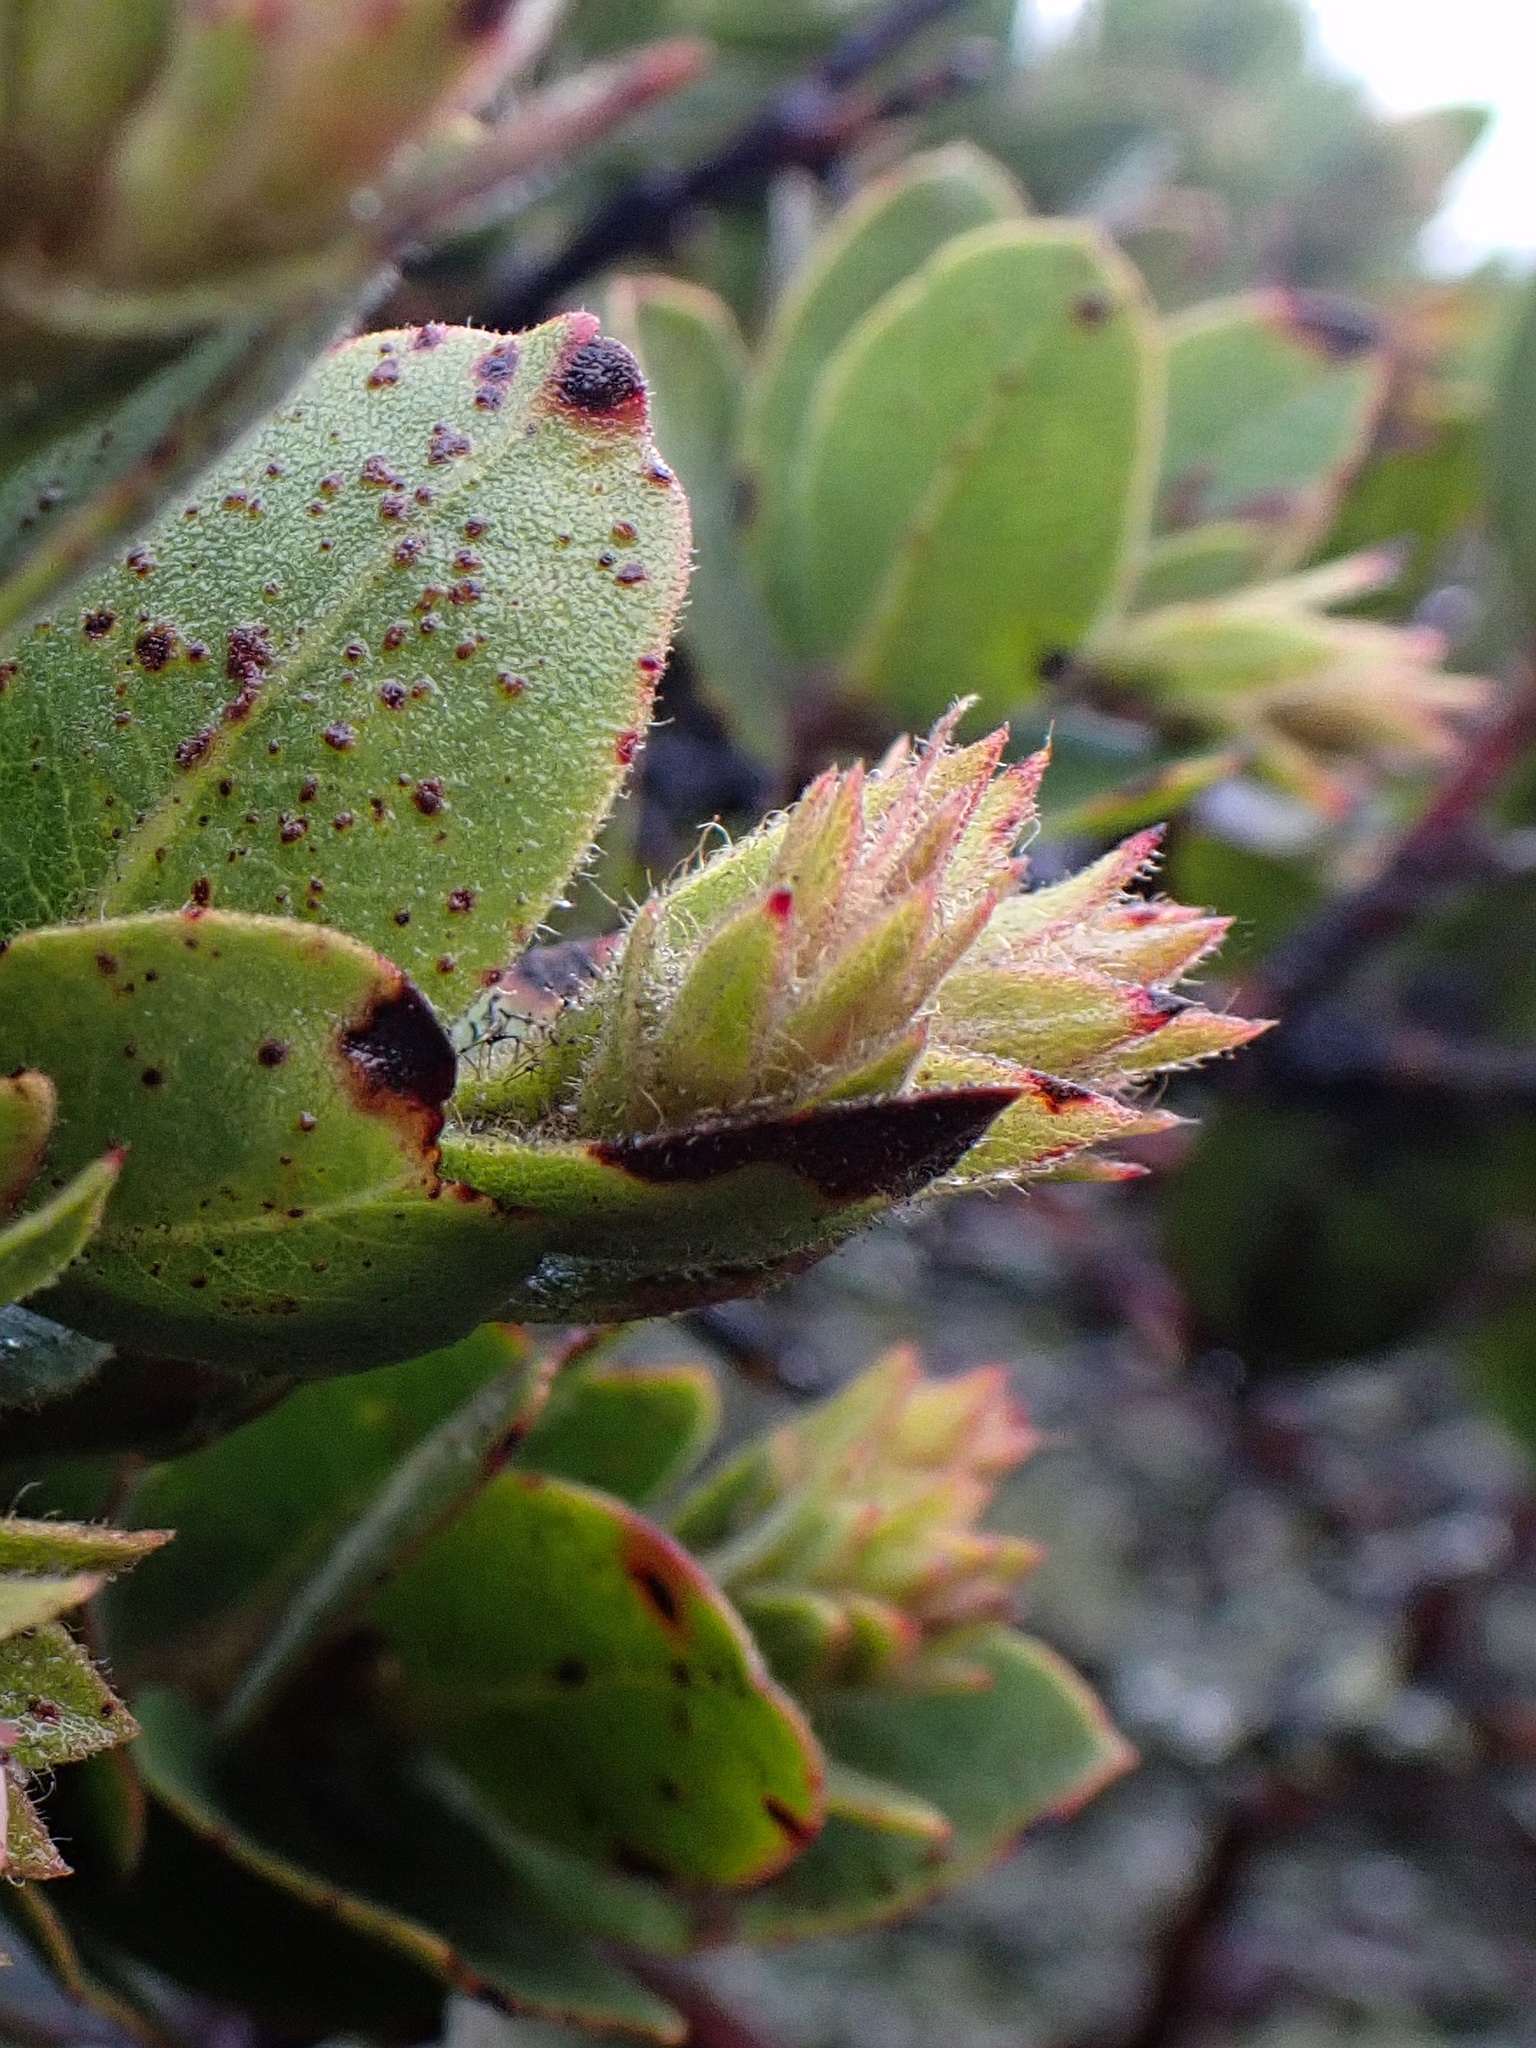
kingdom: Plantae
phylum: Tracheophyta
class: Magnoliopsida
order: Ericales
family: Ericaceae
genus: Arctostaphylos
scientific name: Arctostaphylos montaraensis
